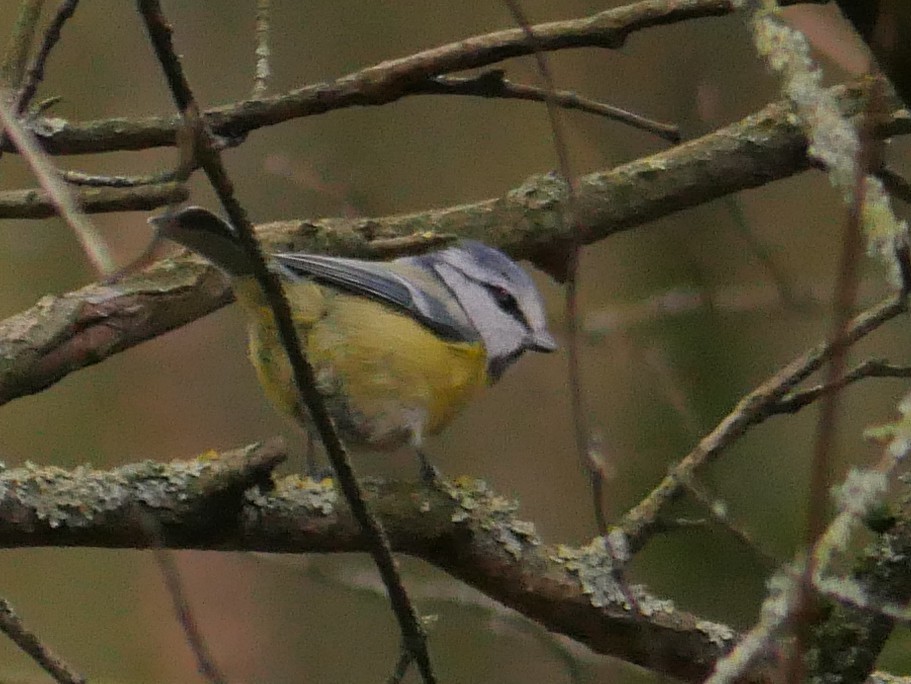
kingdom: Animalia
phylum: Chordata
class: Aves
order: Passeriformes
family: Paridae
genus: Cyanistes
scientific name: Cyanistes caeruleus
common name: Eurasian blue tit
